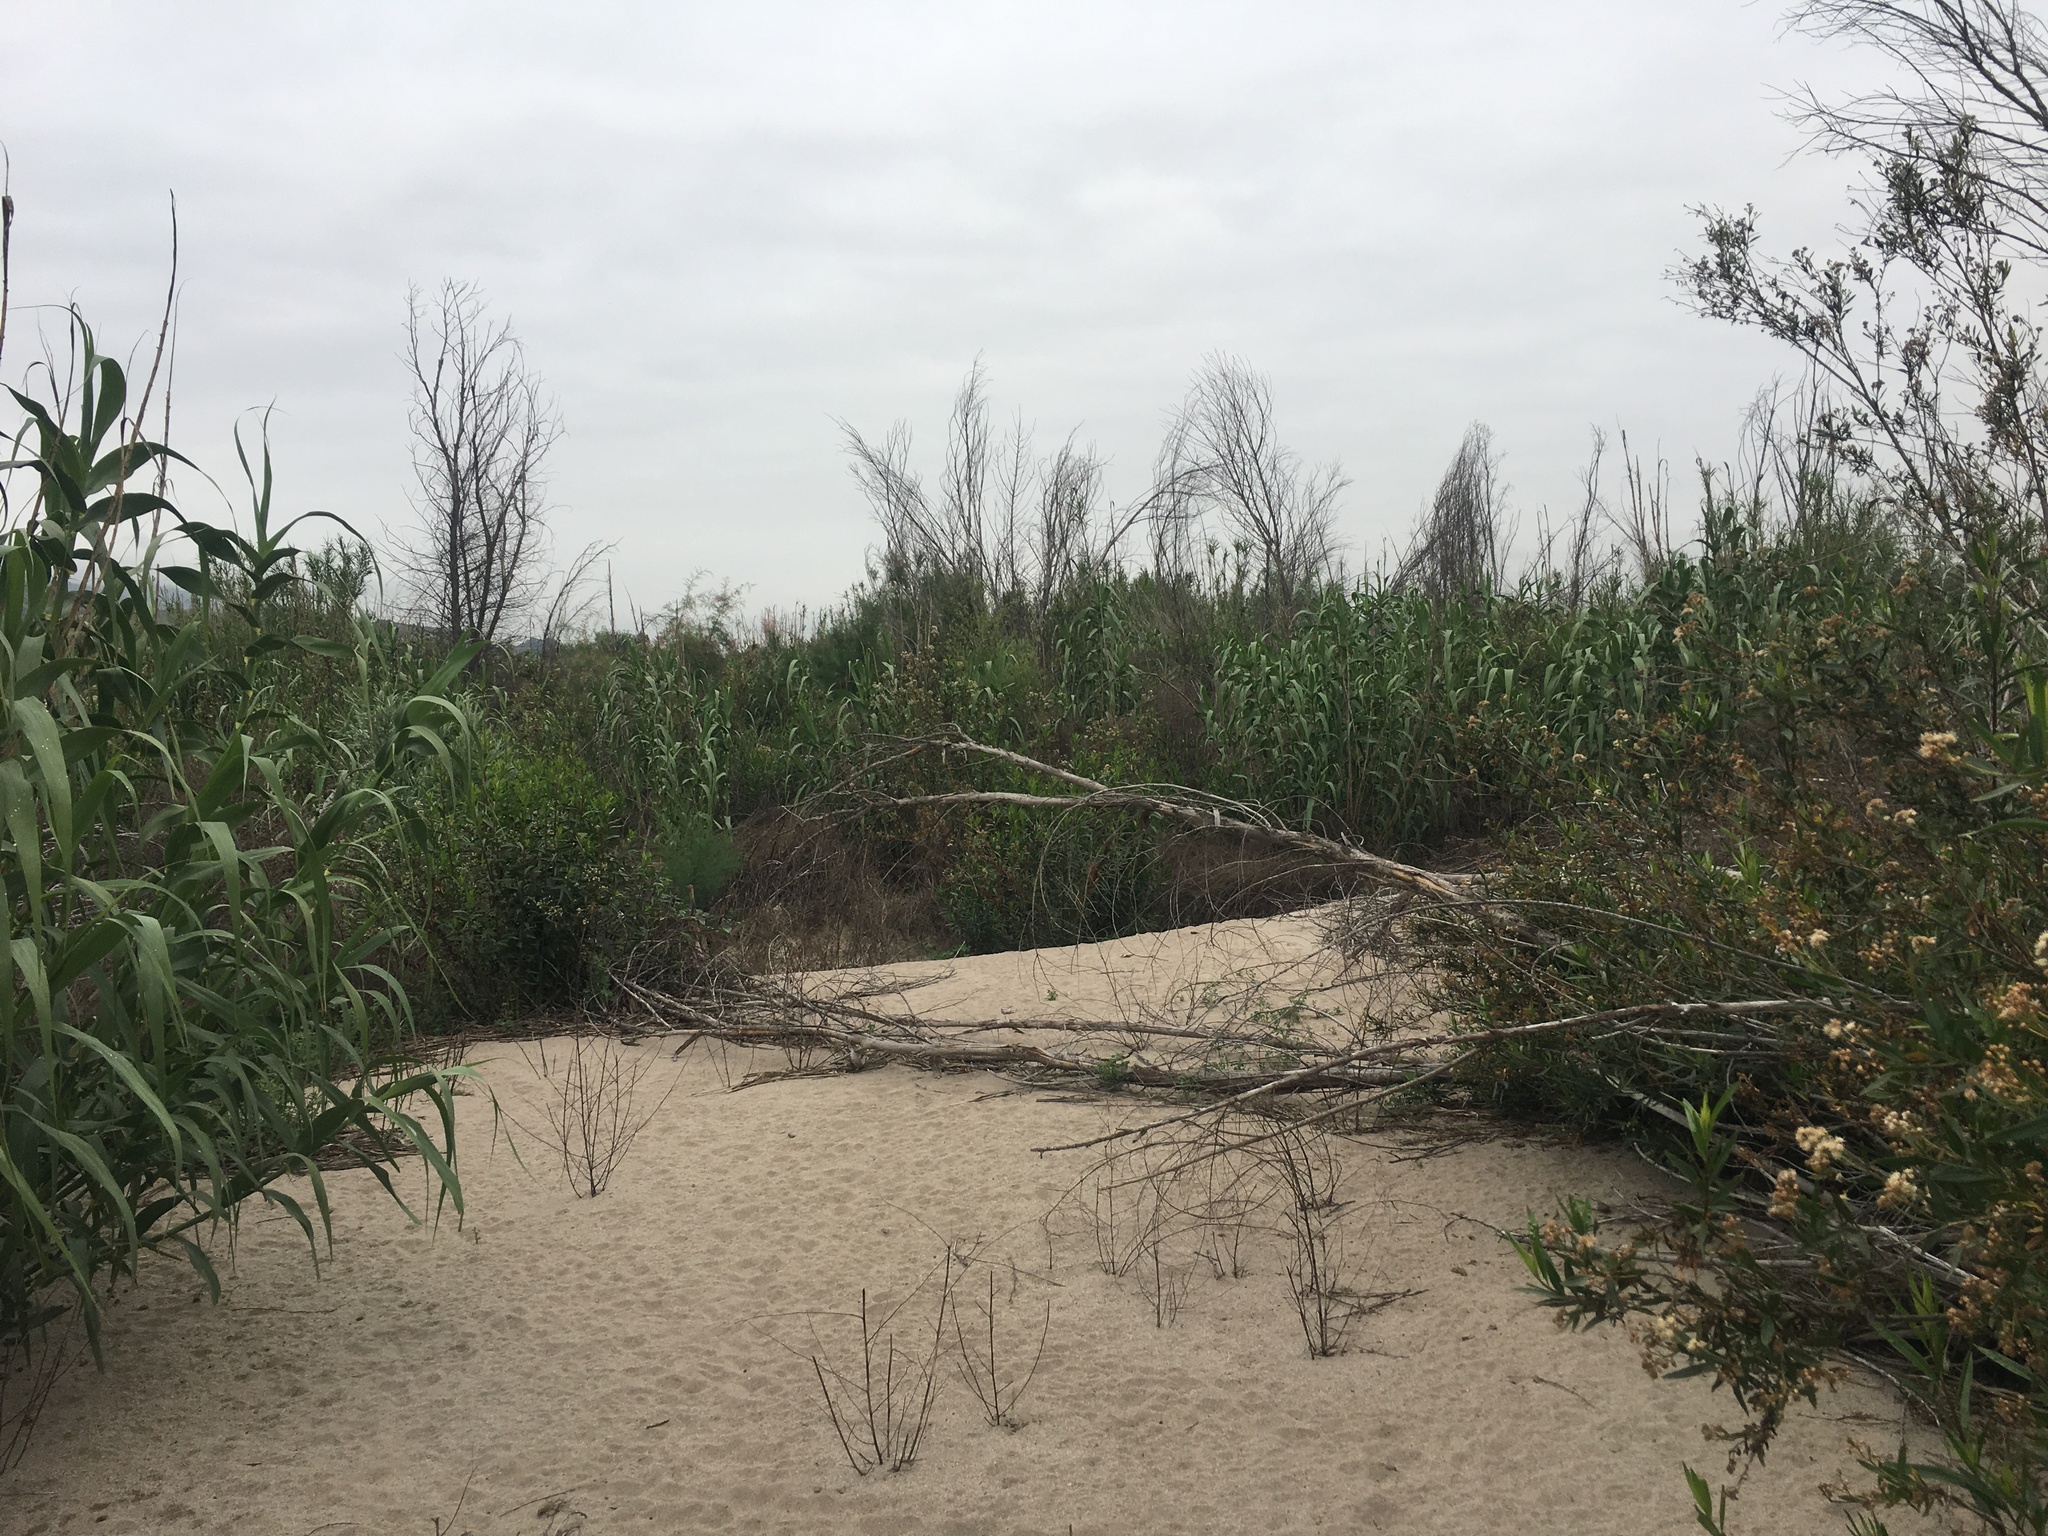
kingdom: Plantae
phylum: Tracheophyta
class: Liliopsida
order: Poales
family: Poaceae
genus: Arundo
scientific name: Arundo donax
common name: Giant reed
